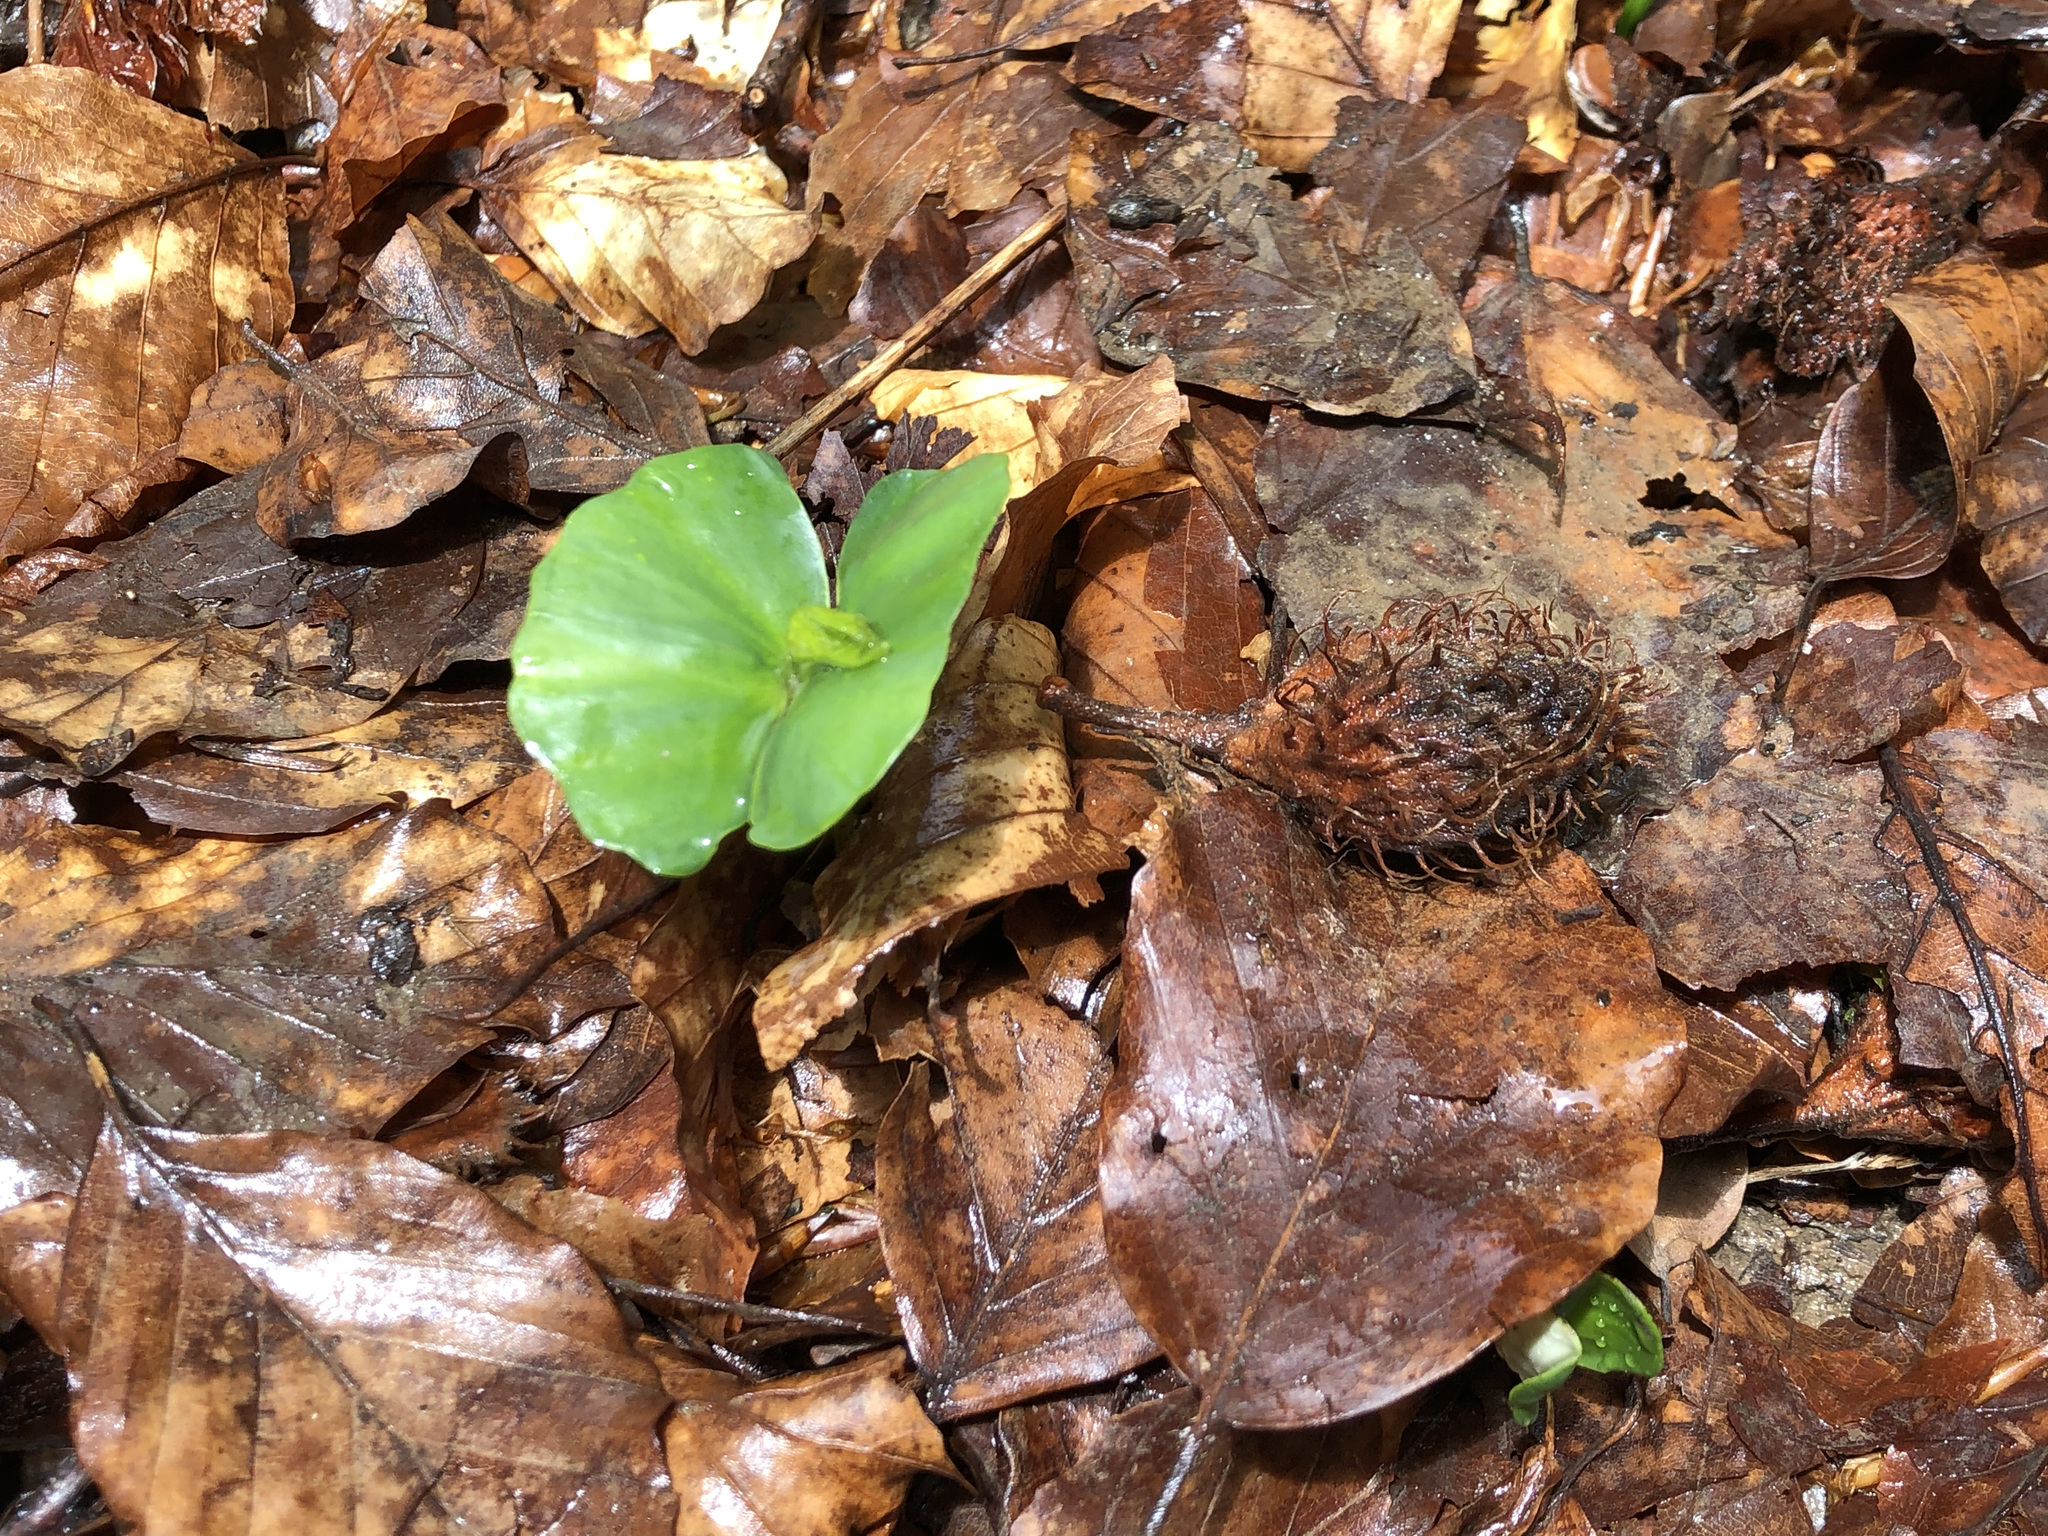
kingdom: Plantae
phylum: Tracheophyta
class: Magnoliopsida
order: Fagales
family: Fagaceae
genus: Fagus
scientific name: Fagus sylvatica
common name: Beech
